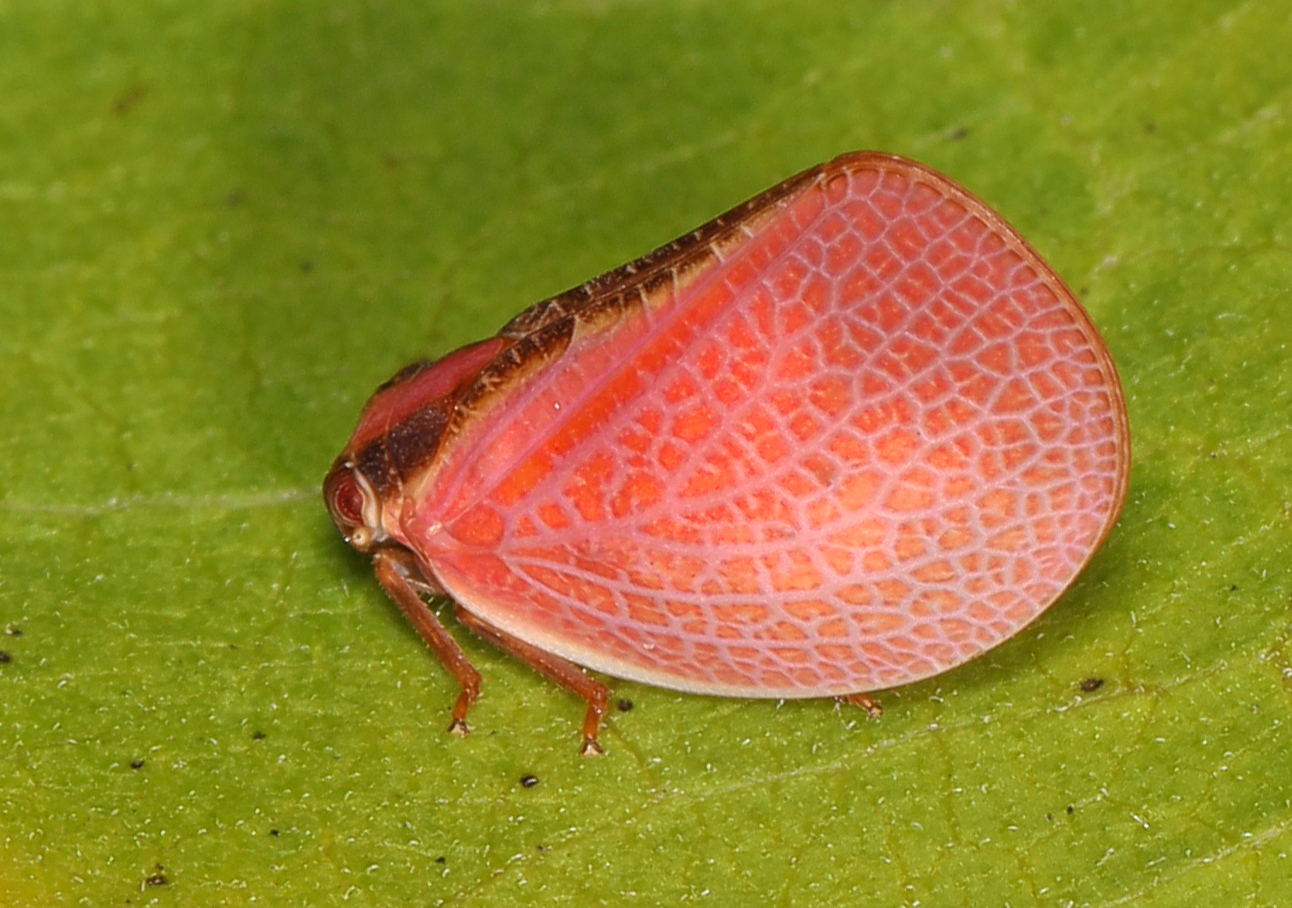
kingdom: Animalia
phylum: Arthropoda
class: Insecta
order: Hemiptera
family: Acanaloniidae
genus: Acanalonia
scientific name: Acanalonia bivittata
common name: Two-striped planthopper
